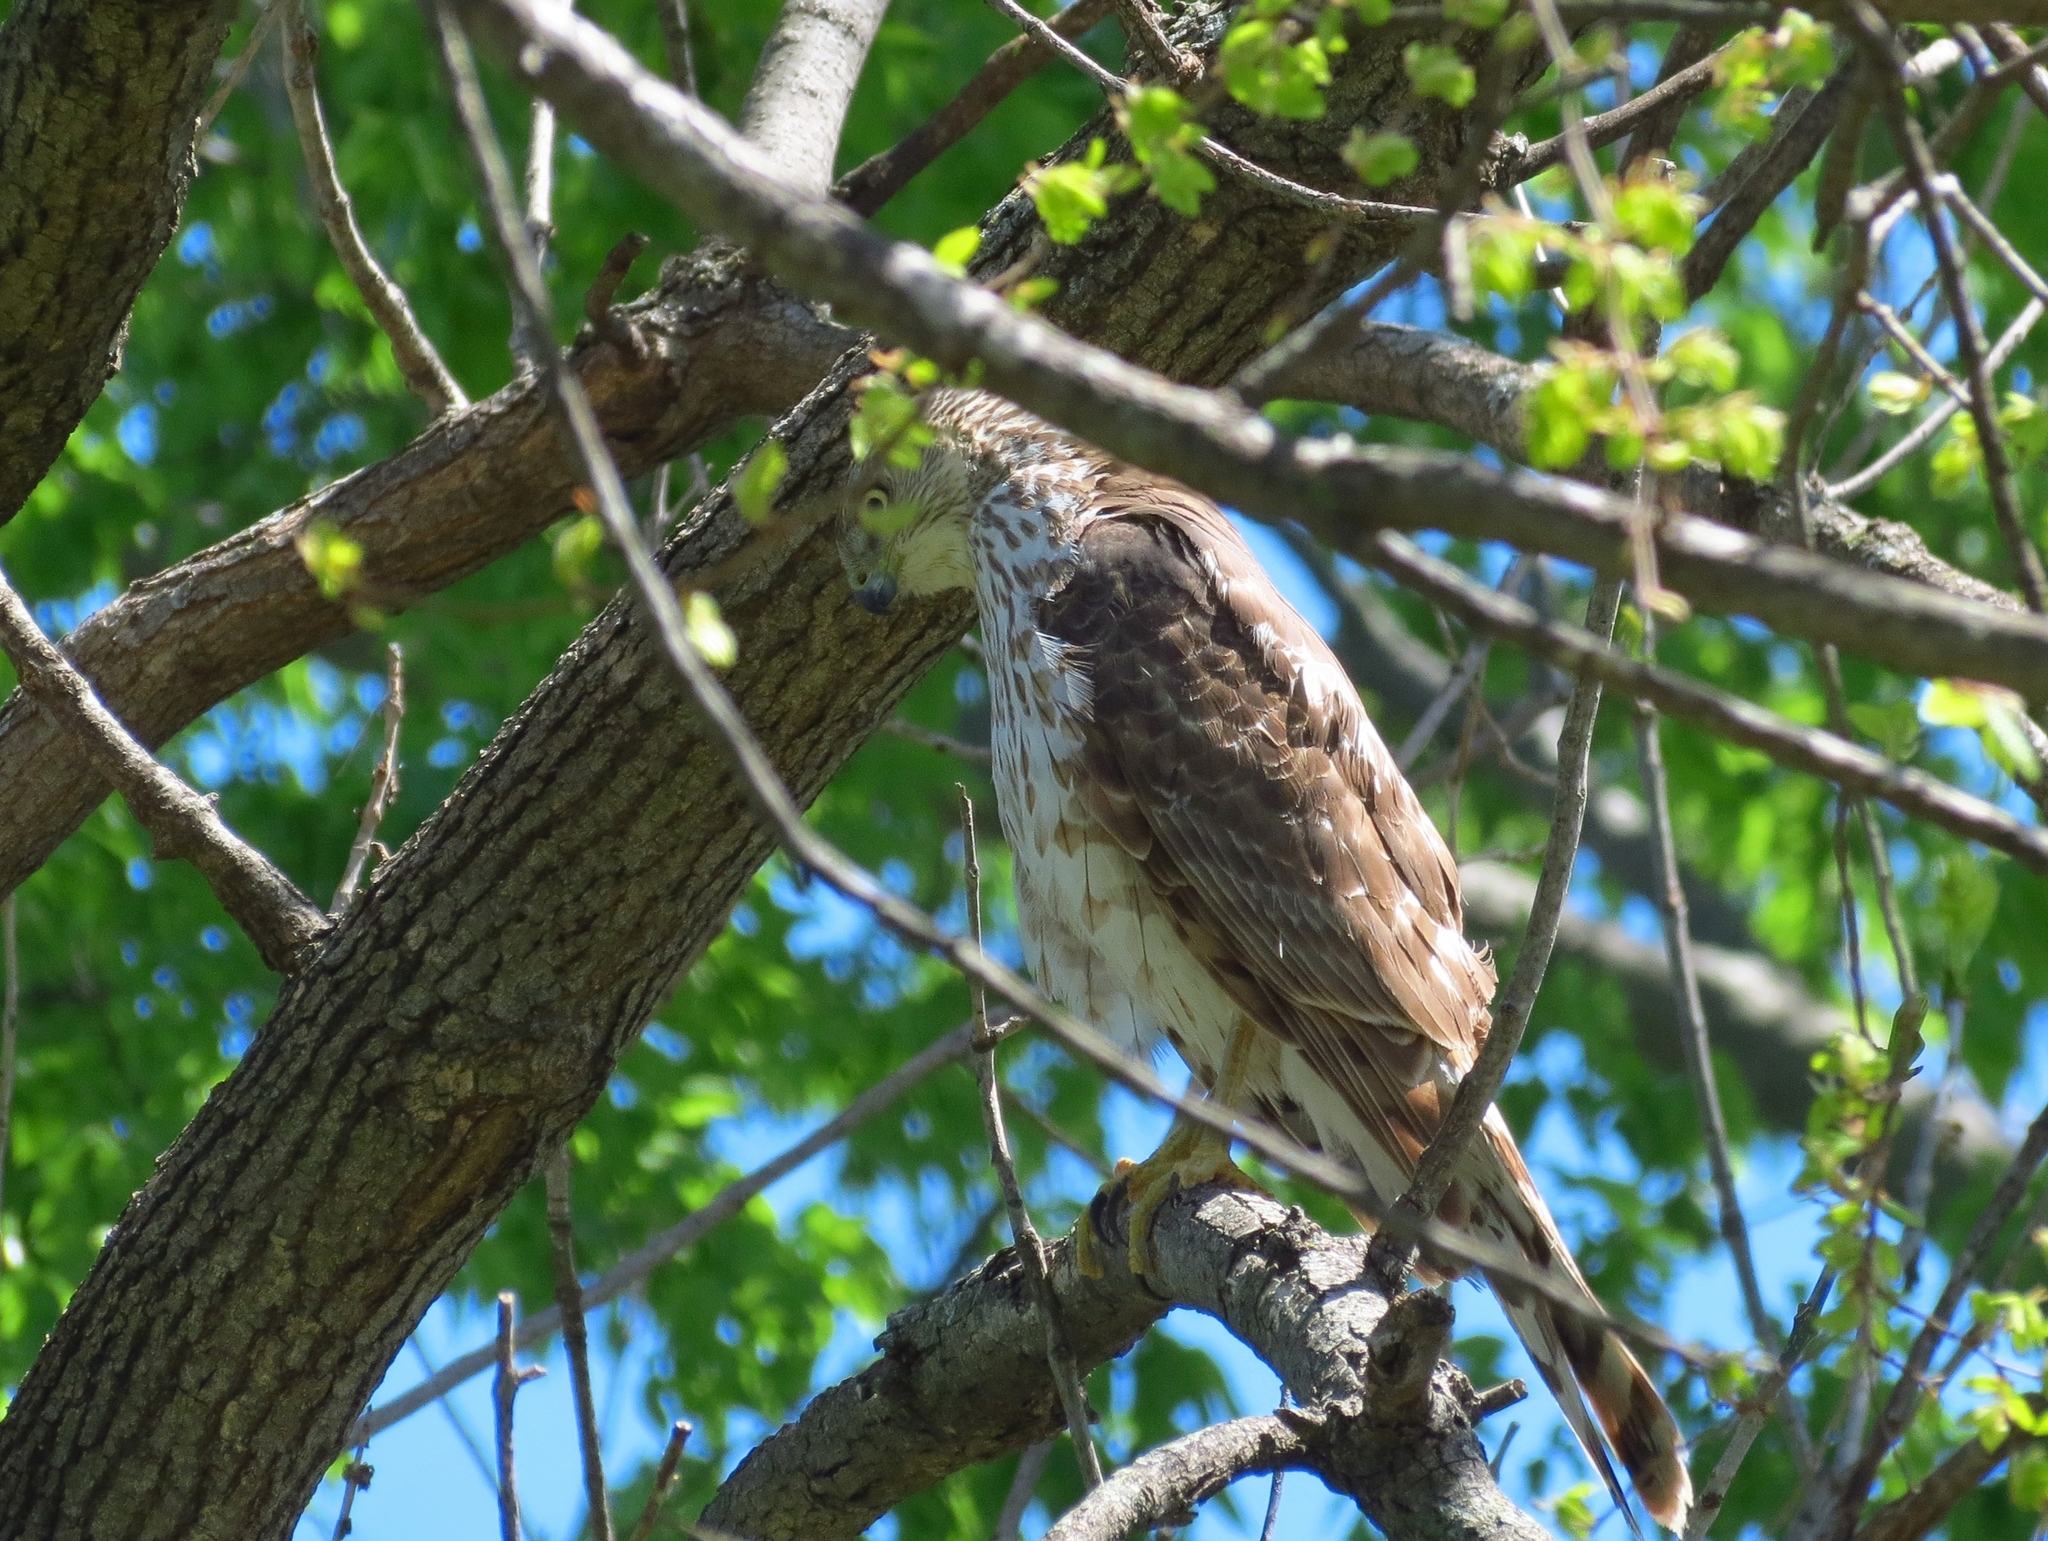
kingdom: Animalia
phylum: Chordata
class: Aves
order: Accipitriformes
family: Accipitridae
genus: Accipiter
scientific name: Accipiter cooperii
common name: Cooper's hawk
